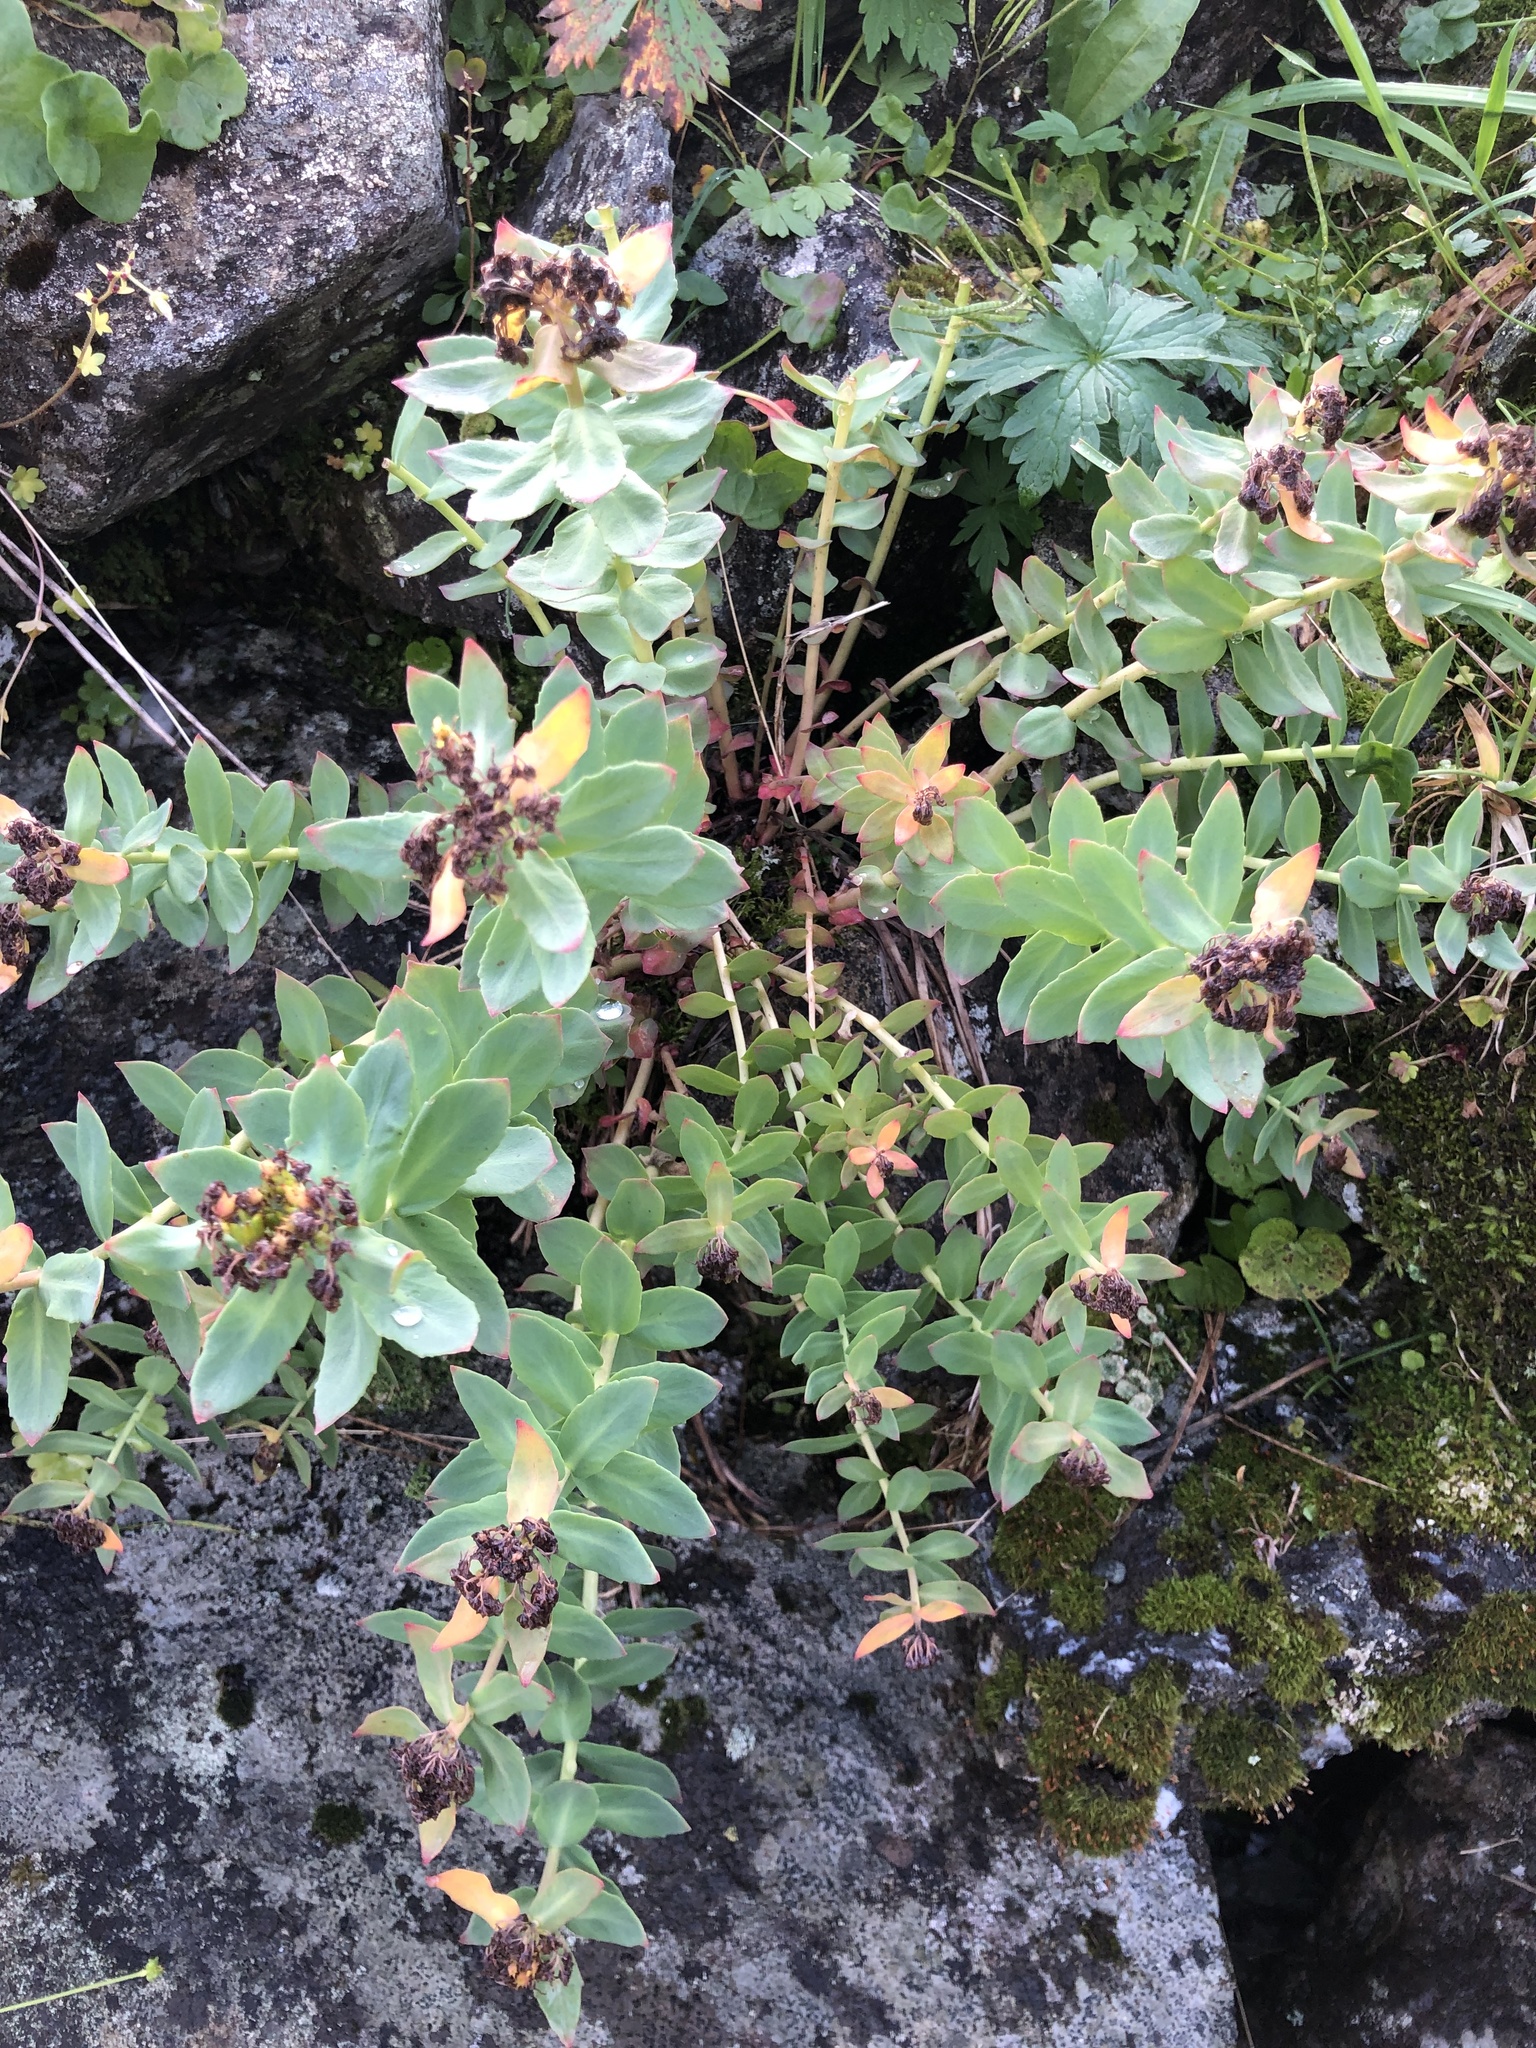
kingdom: Plantae
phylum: Tracheophyta
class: Magnoliopsida
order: Saxifragales
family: Crassulaceae
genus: Rhodiola
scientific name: Rhodiola rosea
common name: Roseroot
